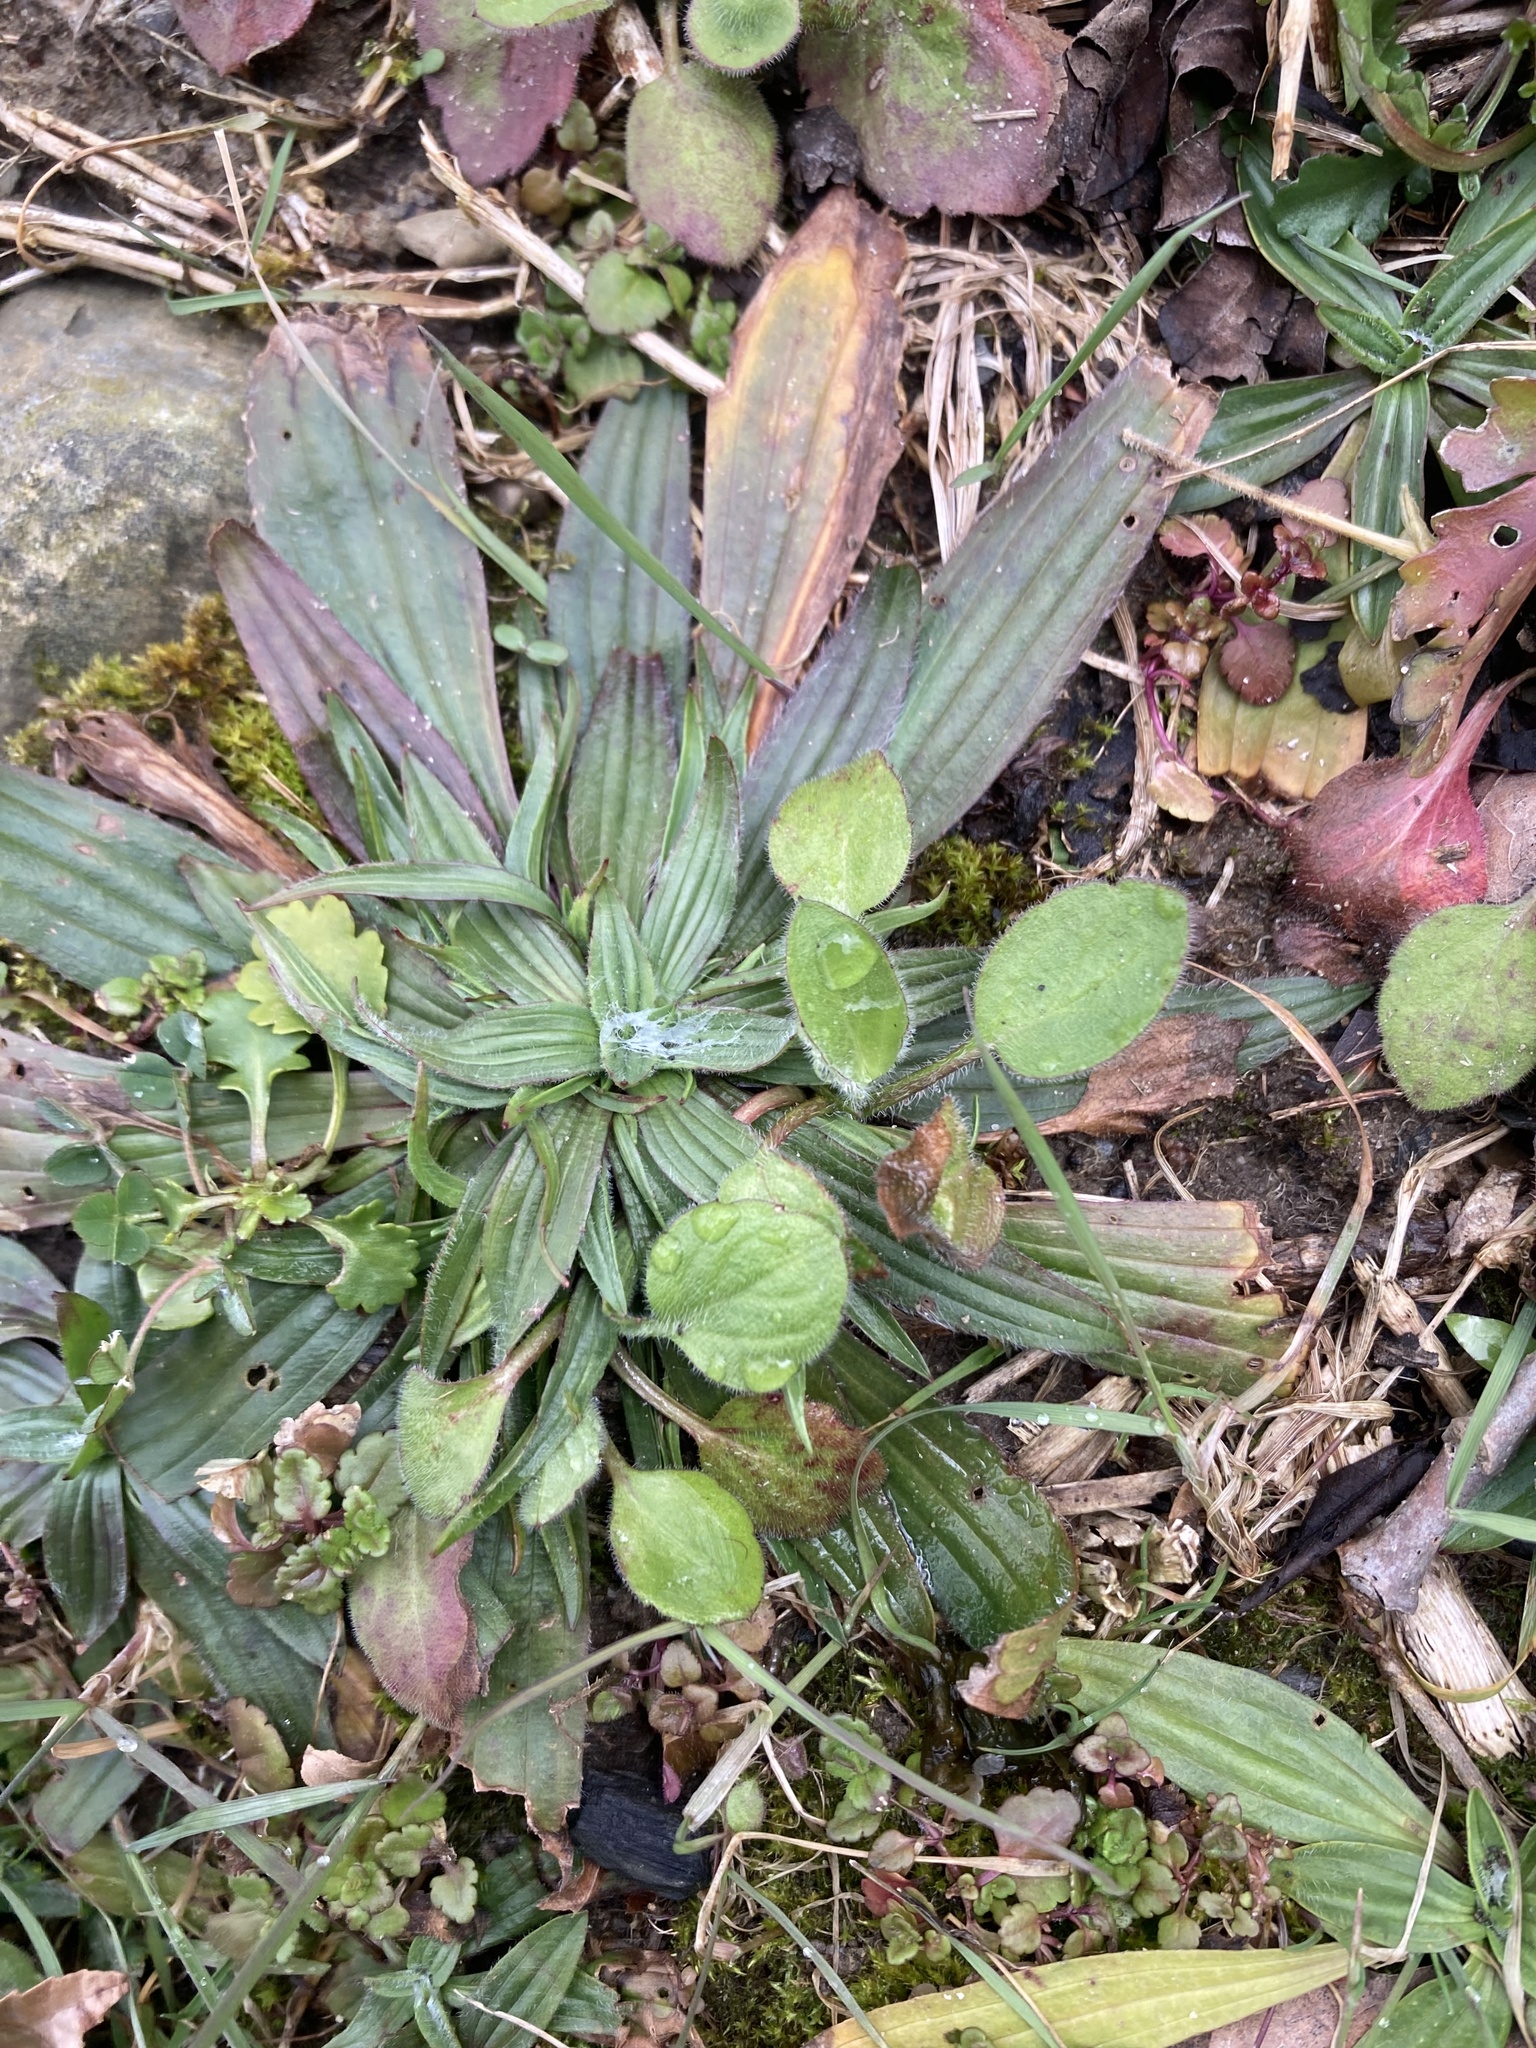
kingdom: Plantae
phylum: Tracheophyta
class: Magnoliopsida
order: Lamiales
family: Plantaginaceae
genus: Plantago
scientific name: Plantago lanceolata
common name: Ribwort plantain
